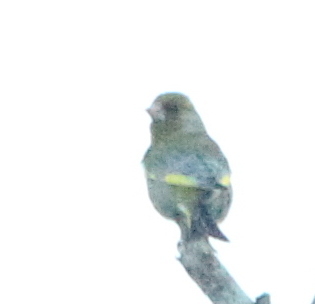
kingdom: Plantae
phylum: Tracheophyta
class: Liliopsida
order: Poales
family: Poaceae
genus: Chloris
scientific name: Chloris chloris
